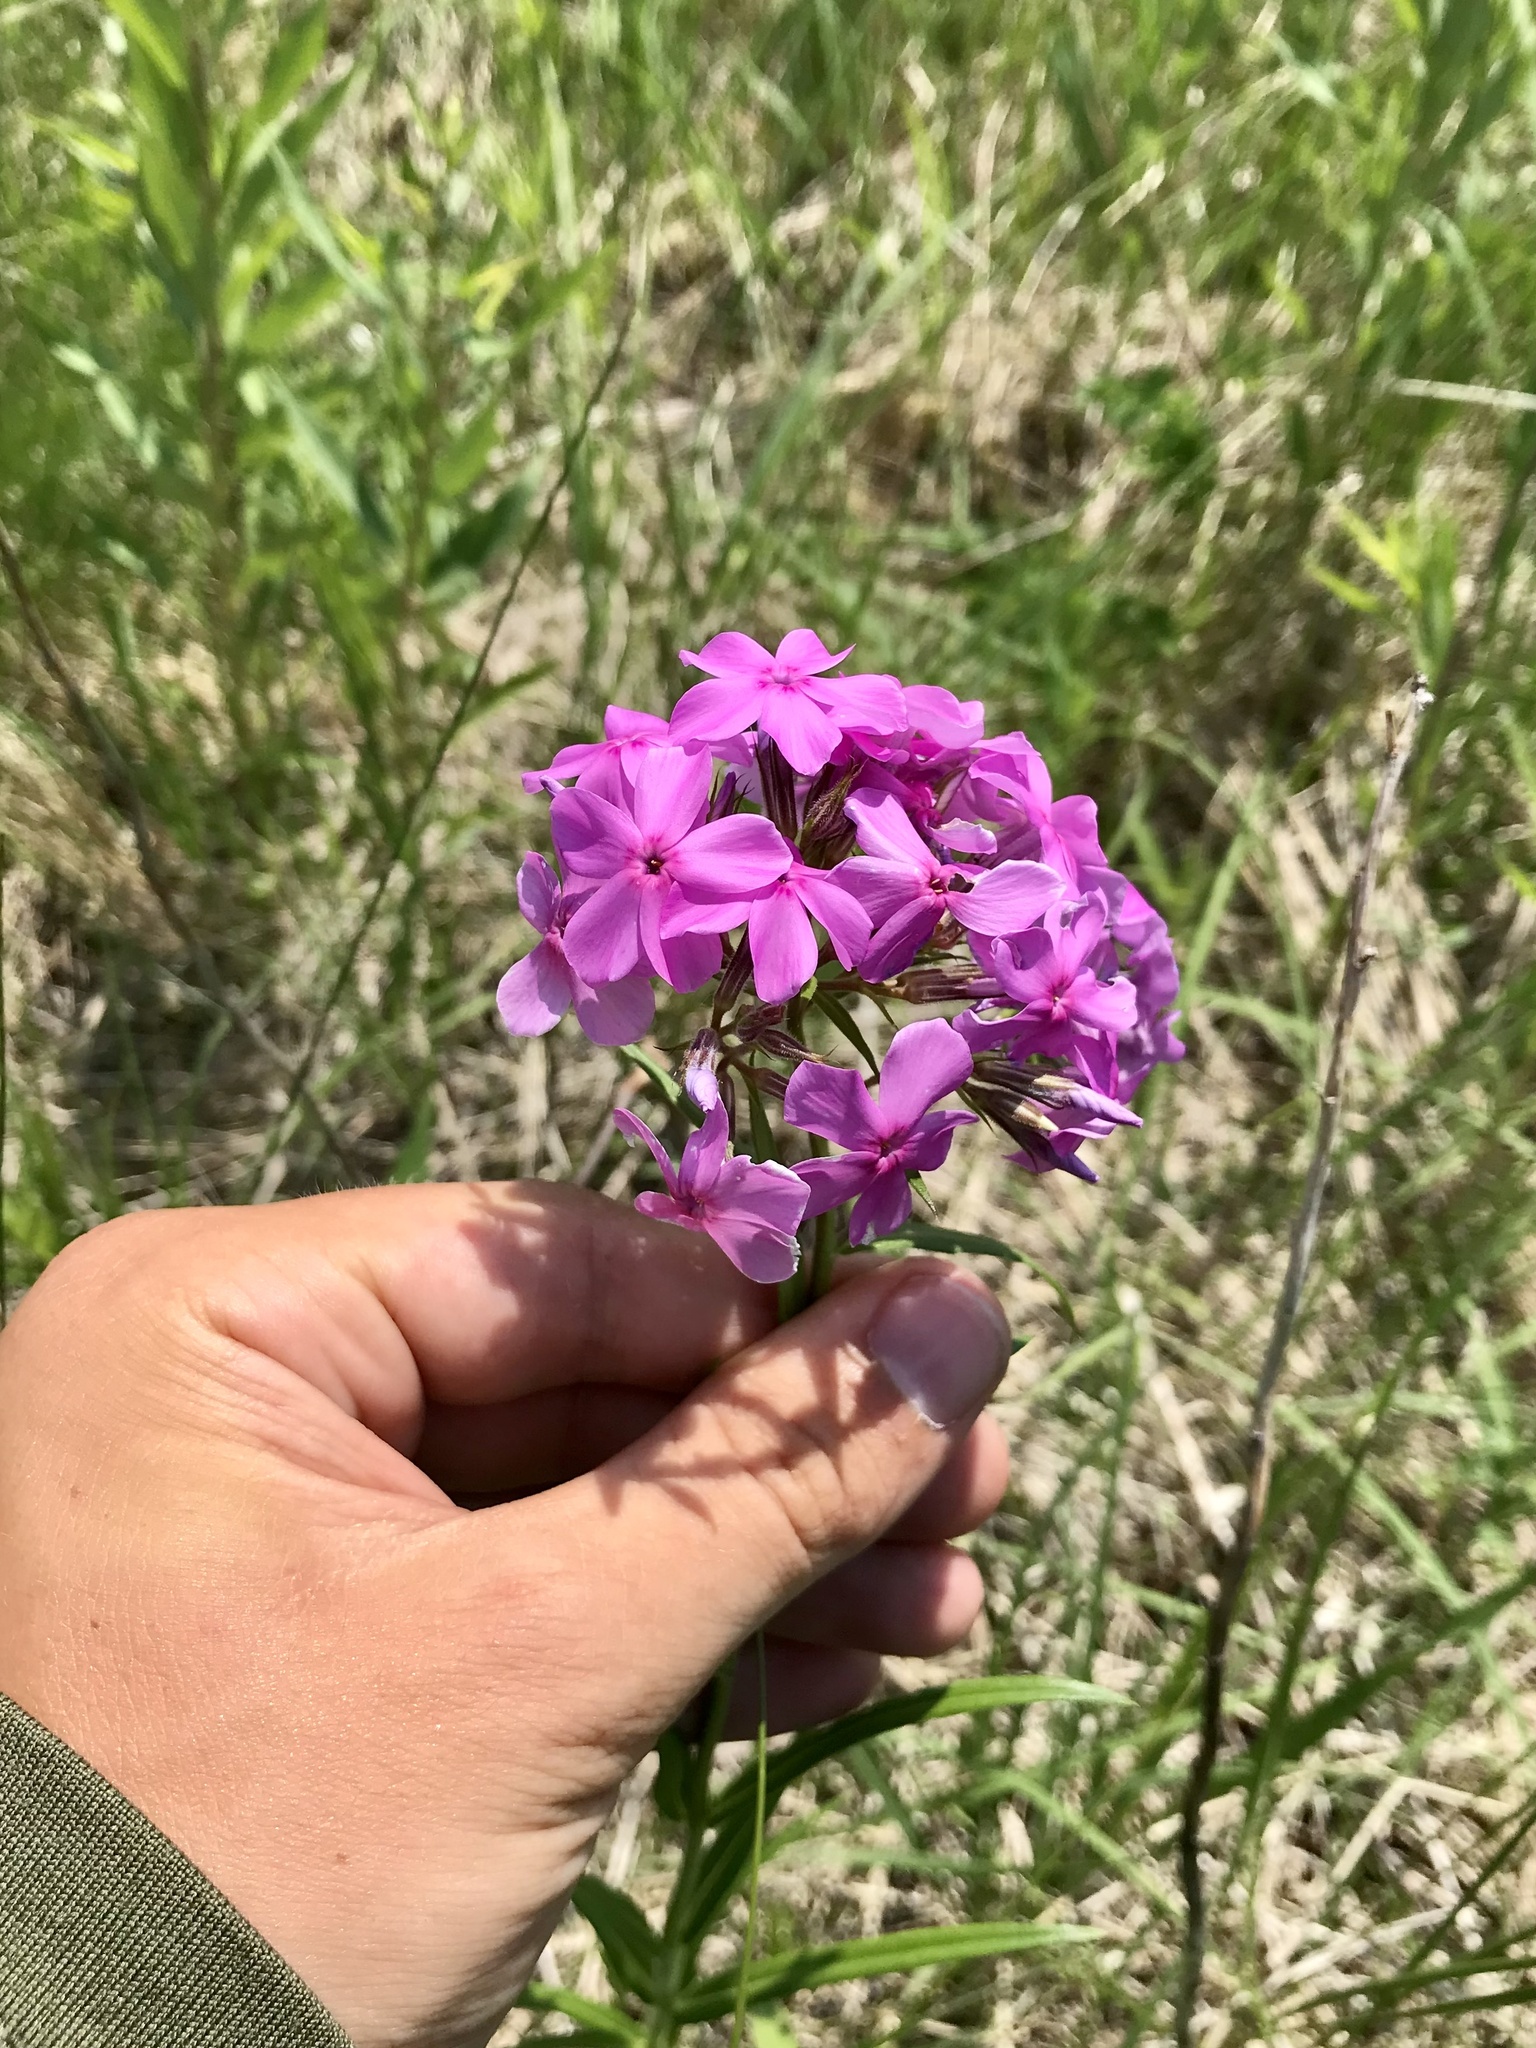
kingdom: Plantae
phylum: Tracheophyta
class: Magnoliopsida
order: Ericales
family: Polemoniaceae
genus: Phlox
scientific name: Phlox pilosa
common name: Prairie phlox
